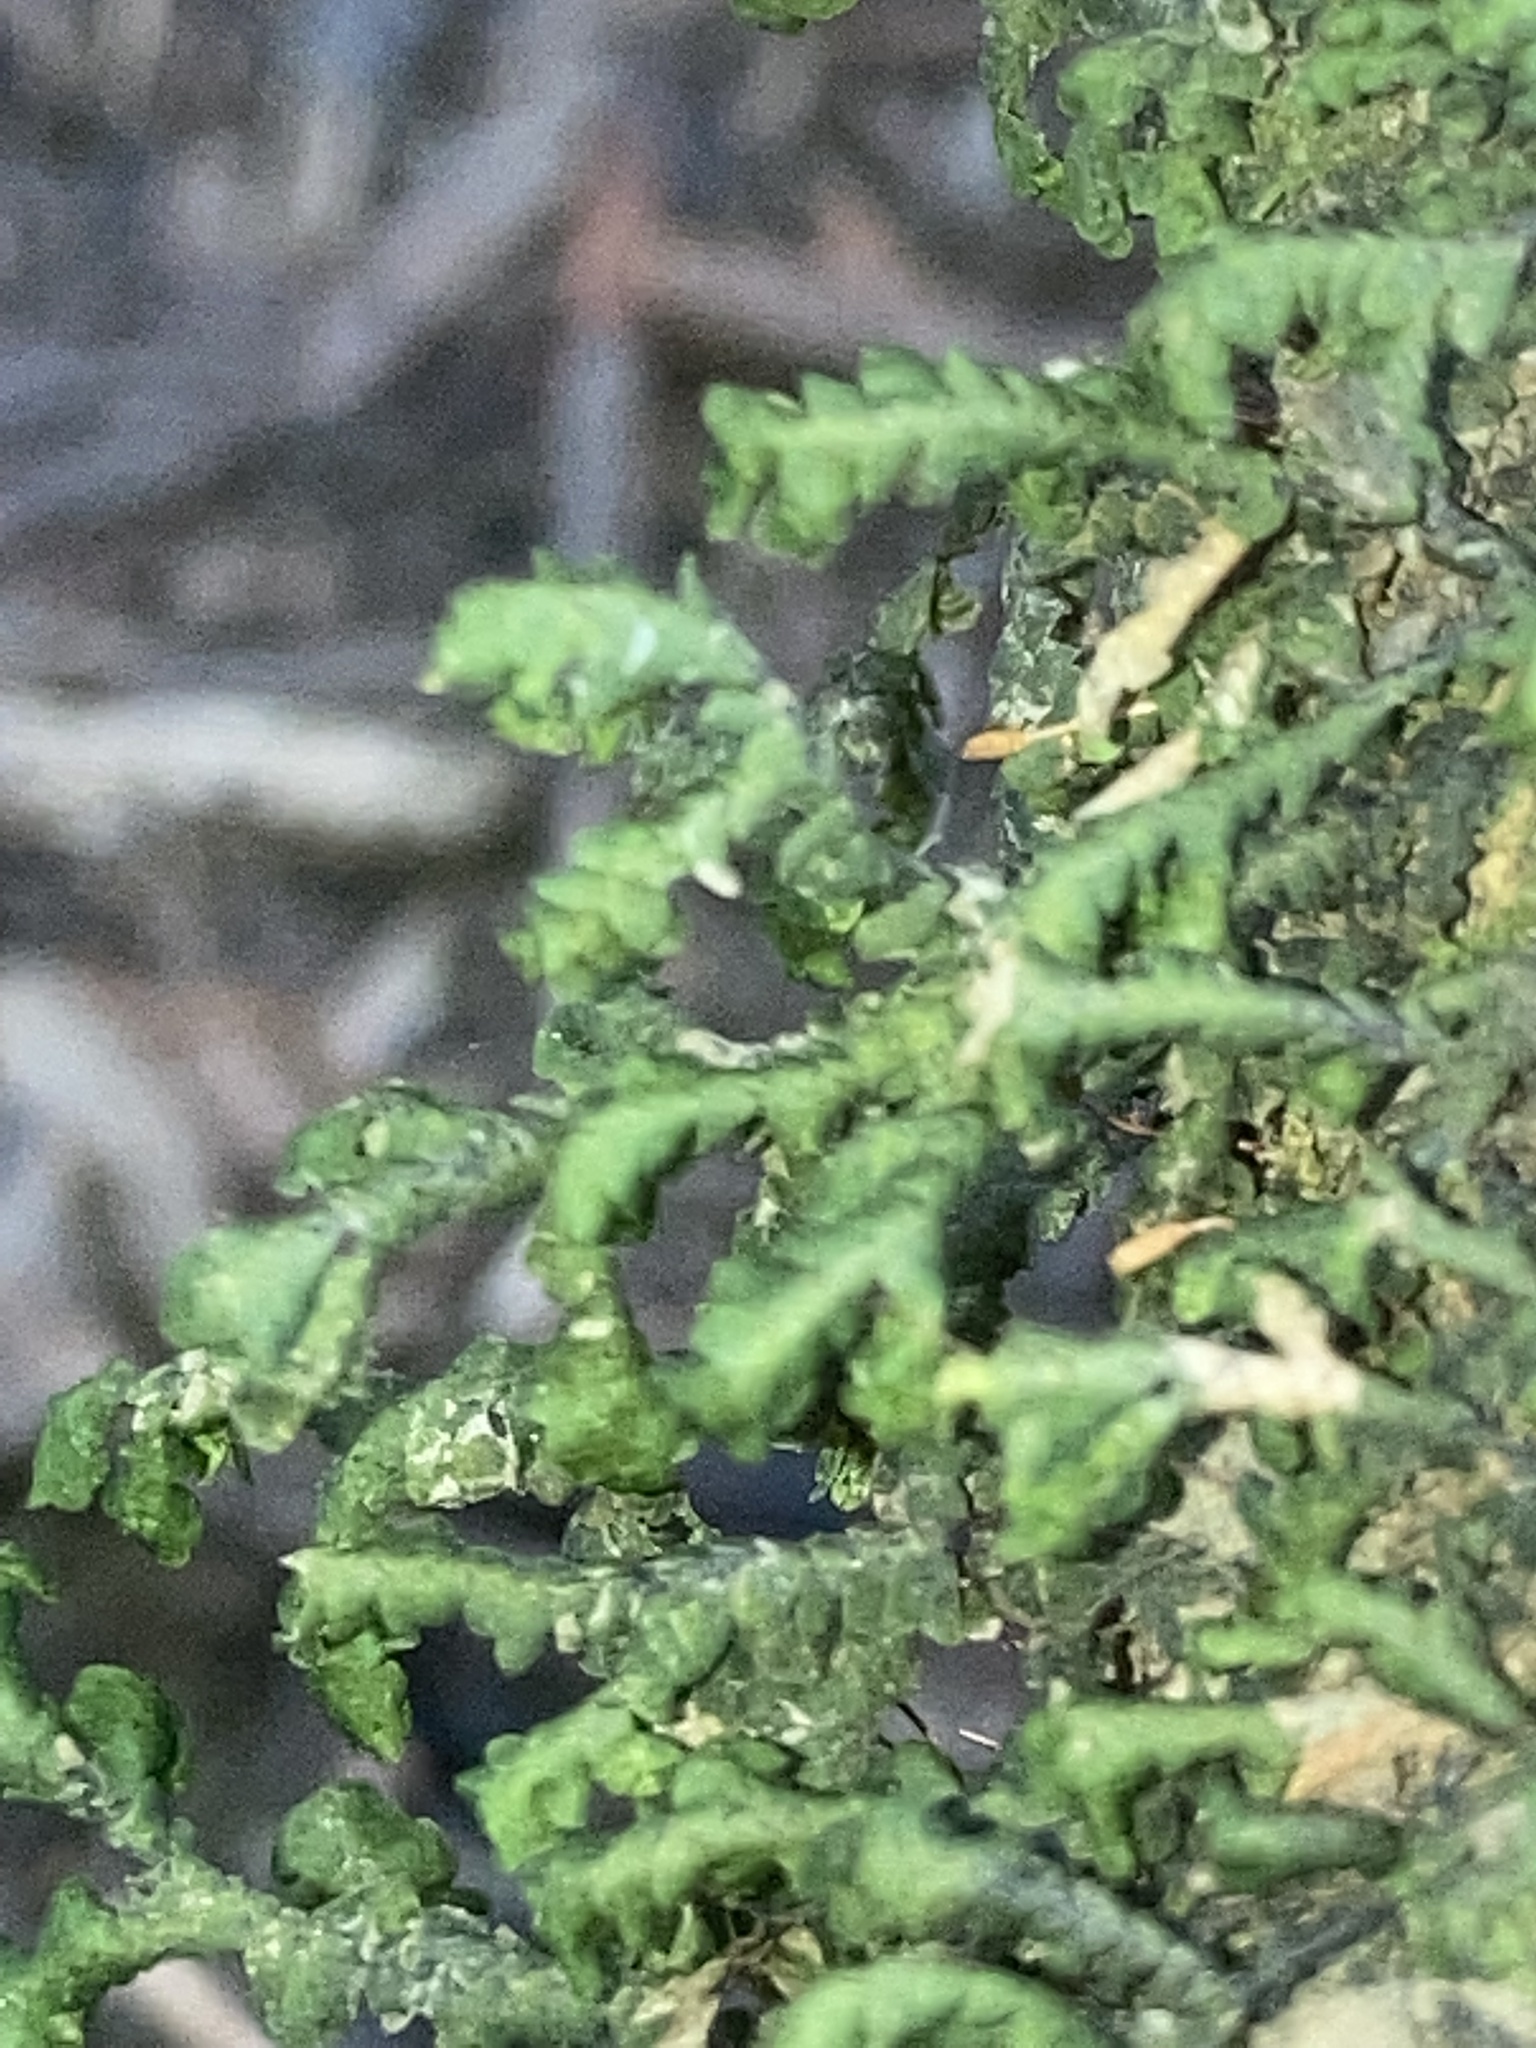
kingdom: Plantae
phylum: Marchantiophyta
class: Jungermanniopsida
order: Porellales
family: Porellaceae
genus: Porella
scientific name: Porella platyphylla
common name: Wall scalewort
